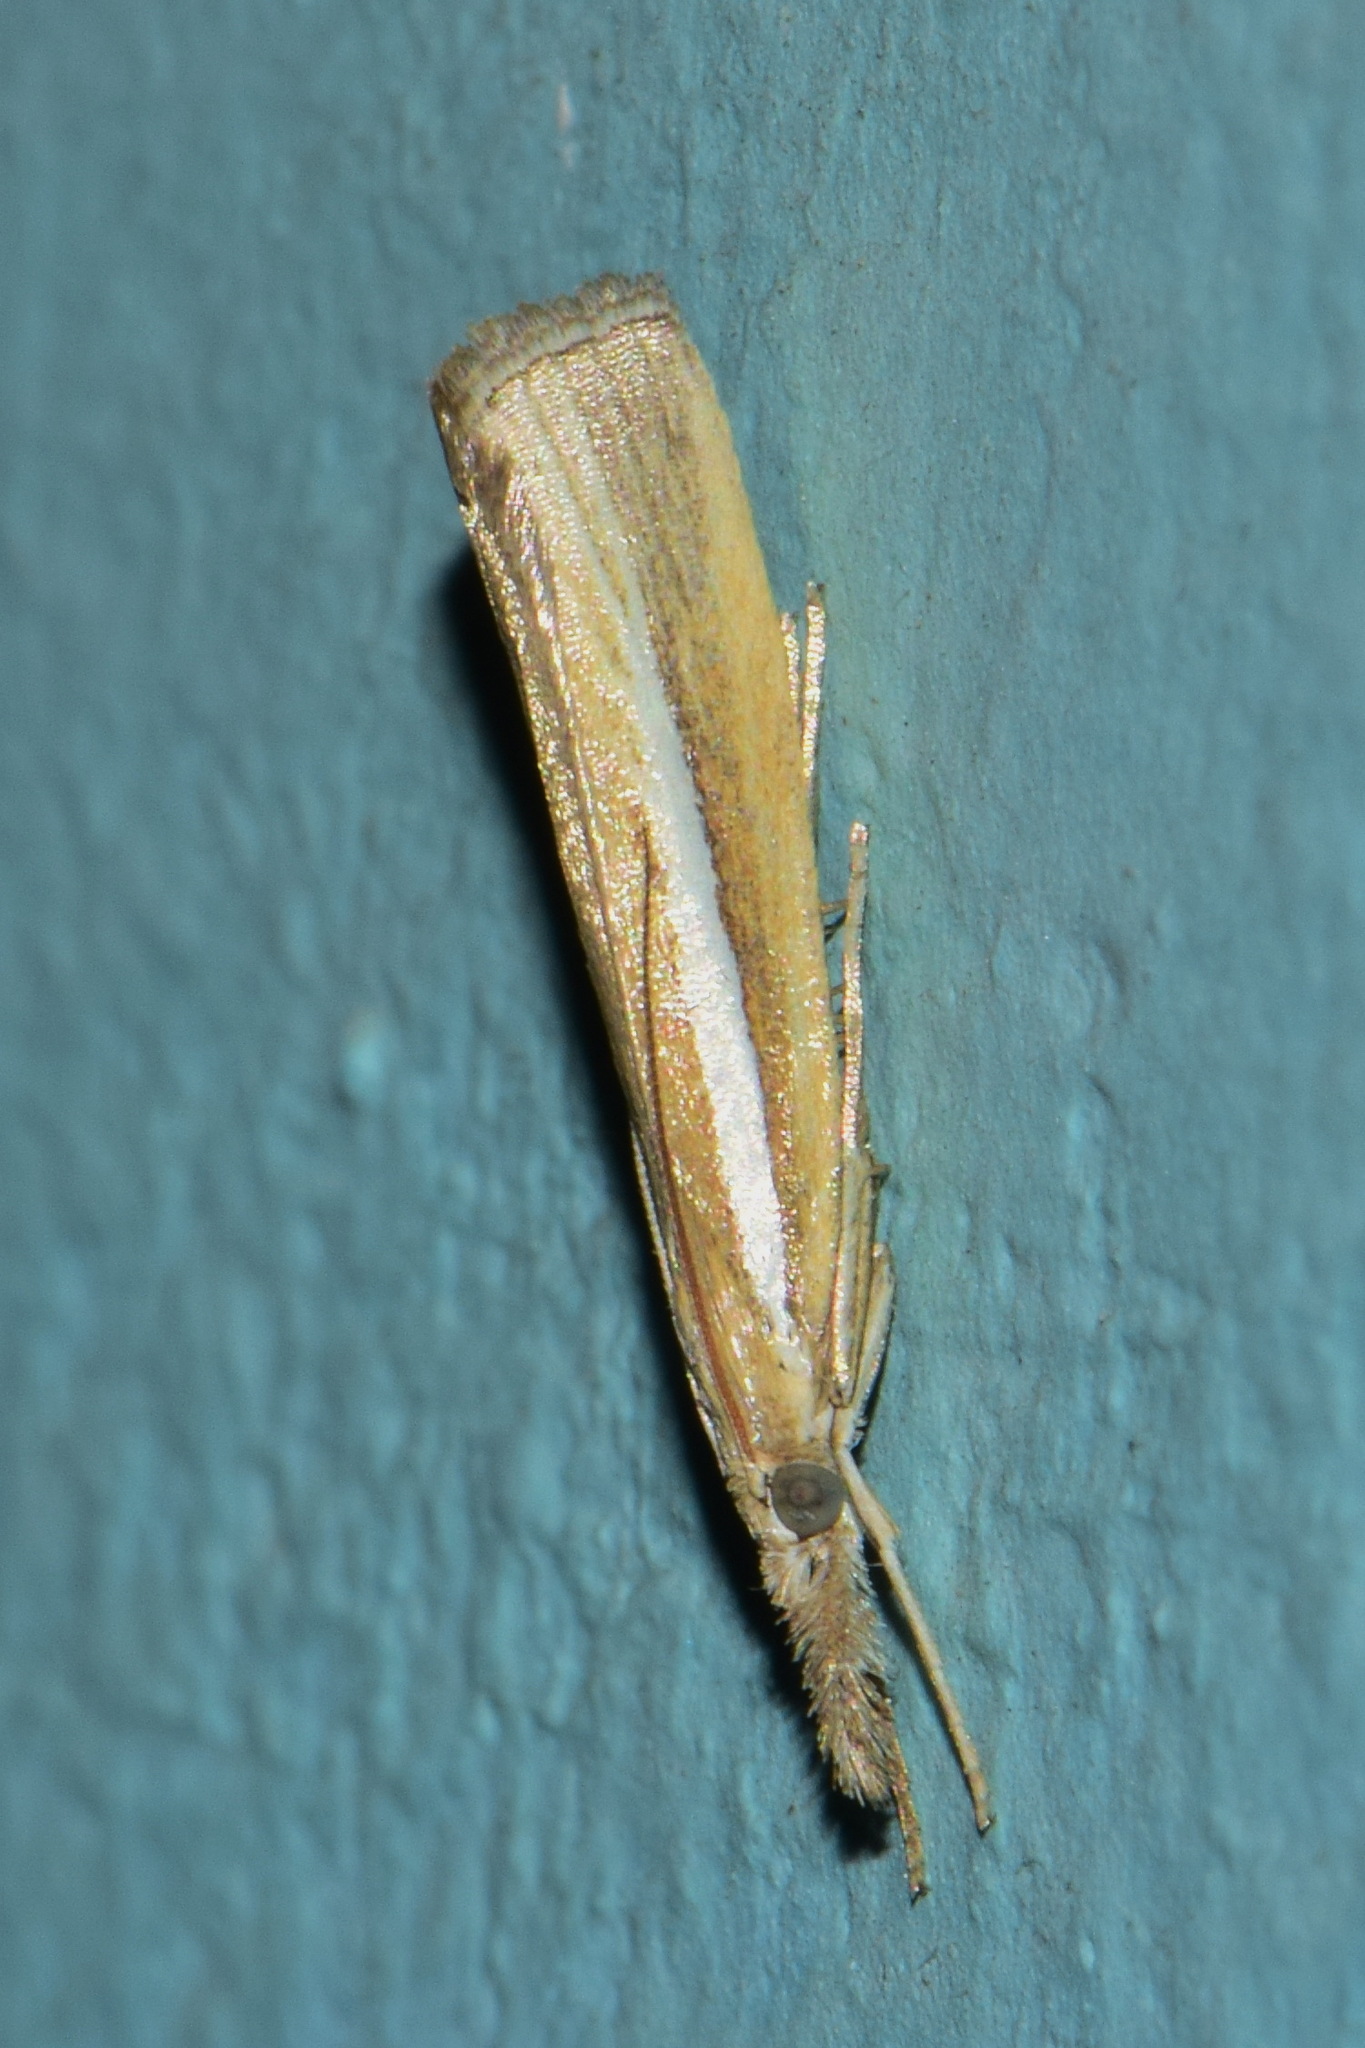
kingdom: Animalia
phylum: Arthropoda
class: Insecta
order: Lepidoptera
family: Crambidae
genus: Agriphila
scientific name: Agriphila selasella
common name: Pale-streak grass-veneer
